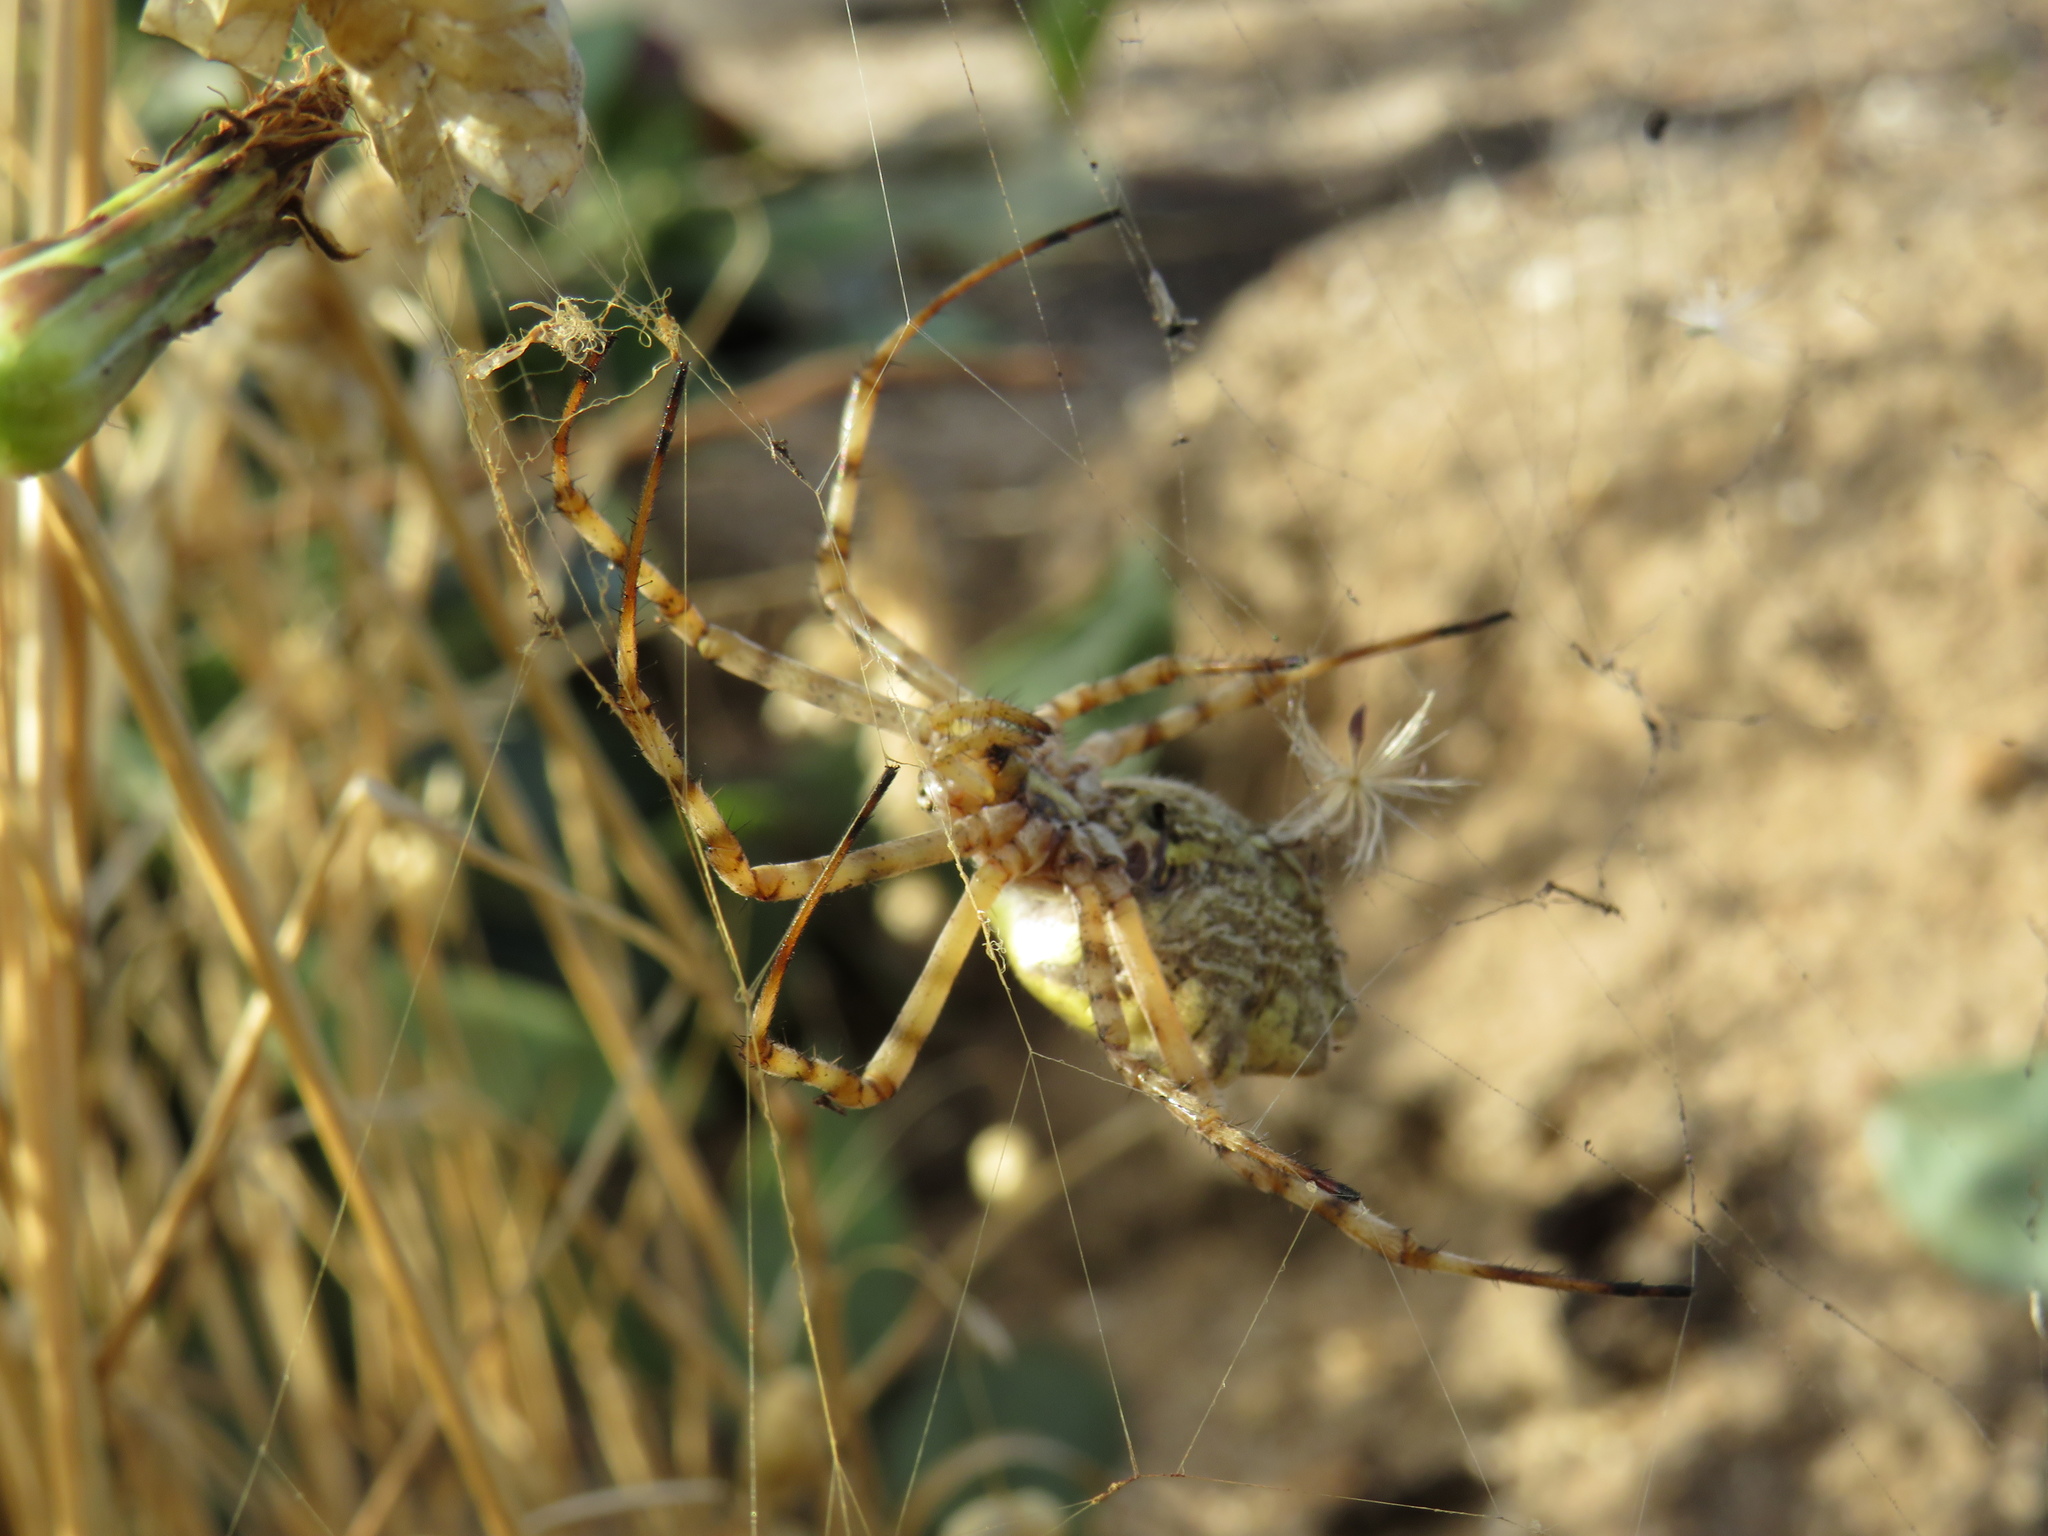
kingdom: Animalia
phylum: Arthropoda
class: Arachnida
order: Araneae
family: Araneidae
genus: Argiope
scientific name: Argiope australis
